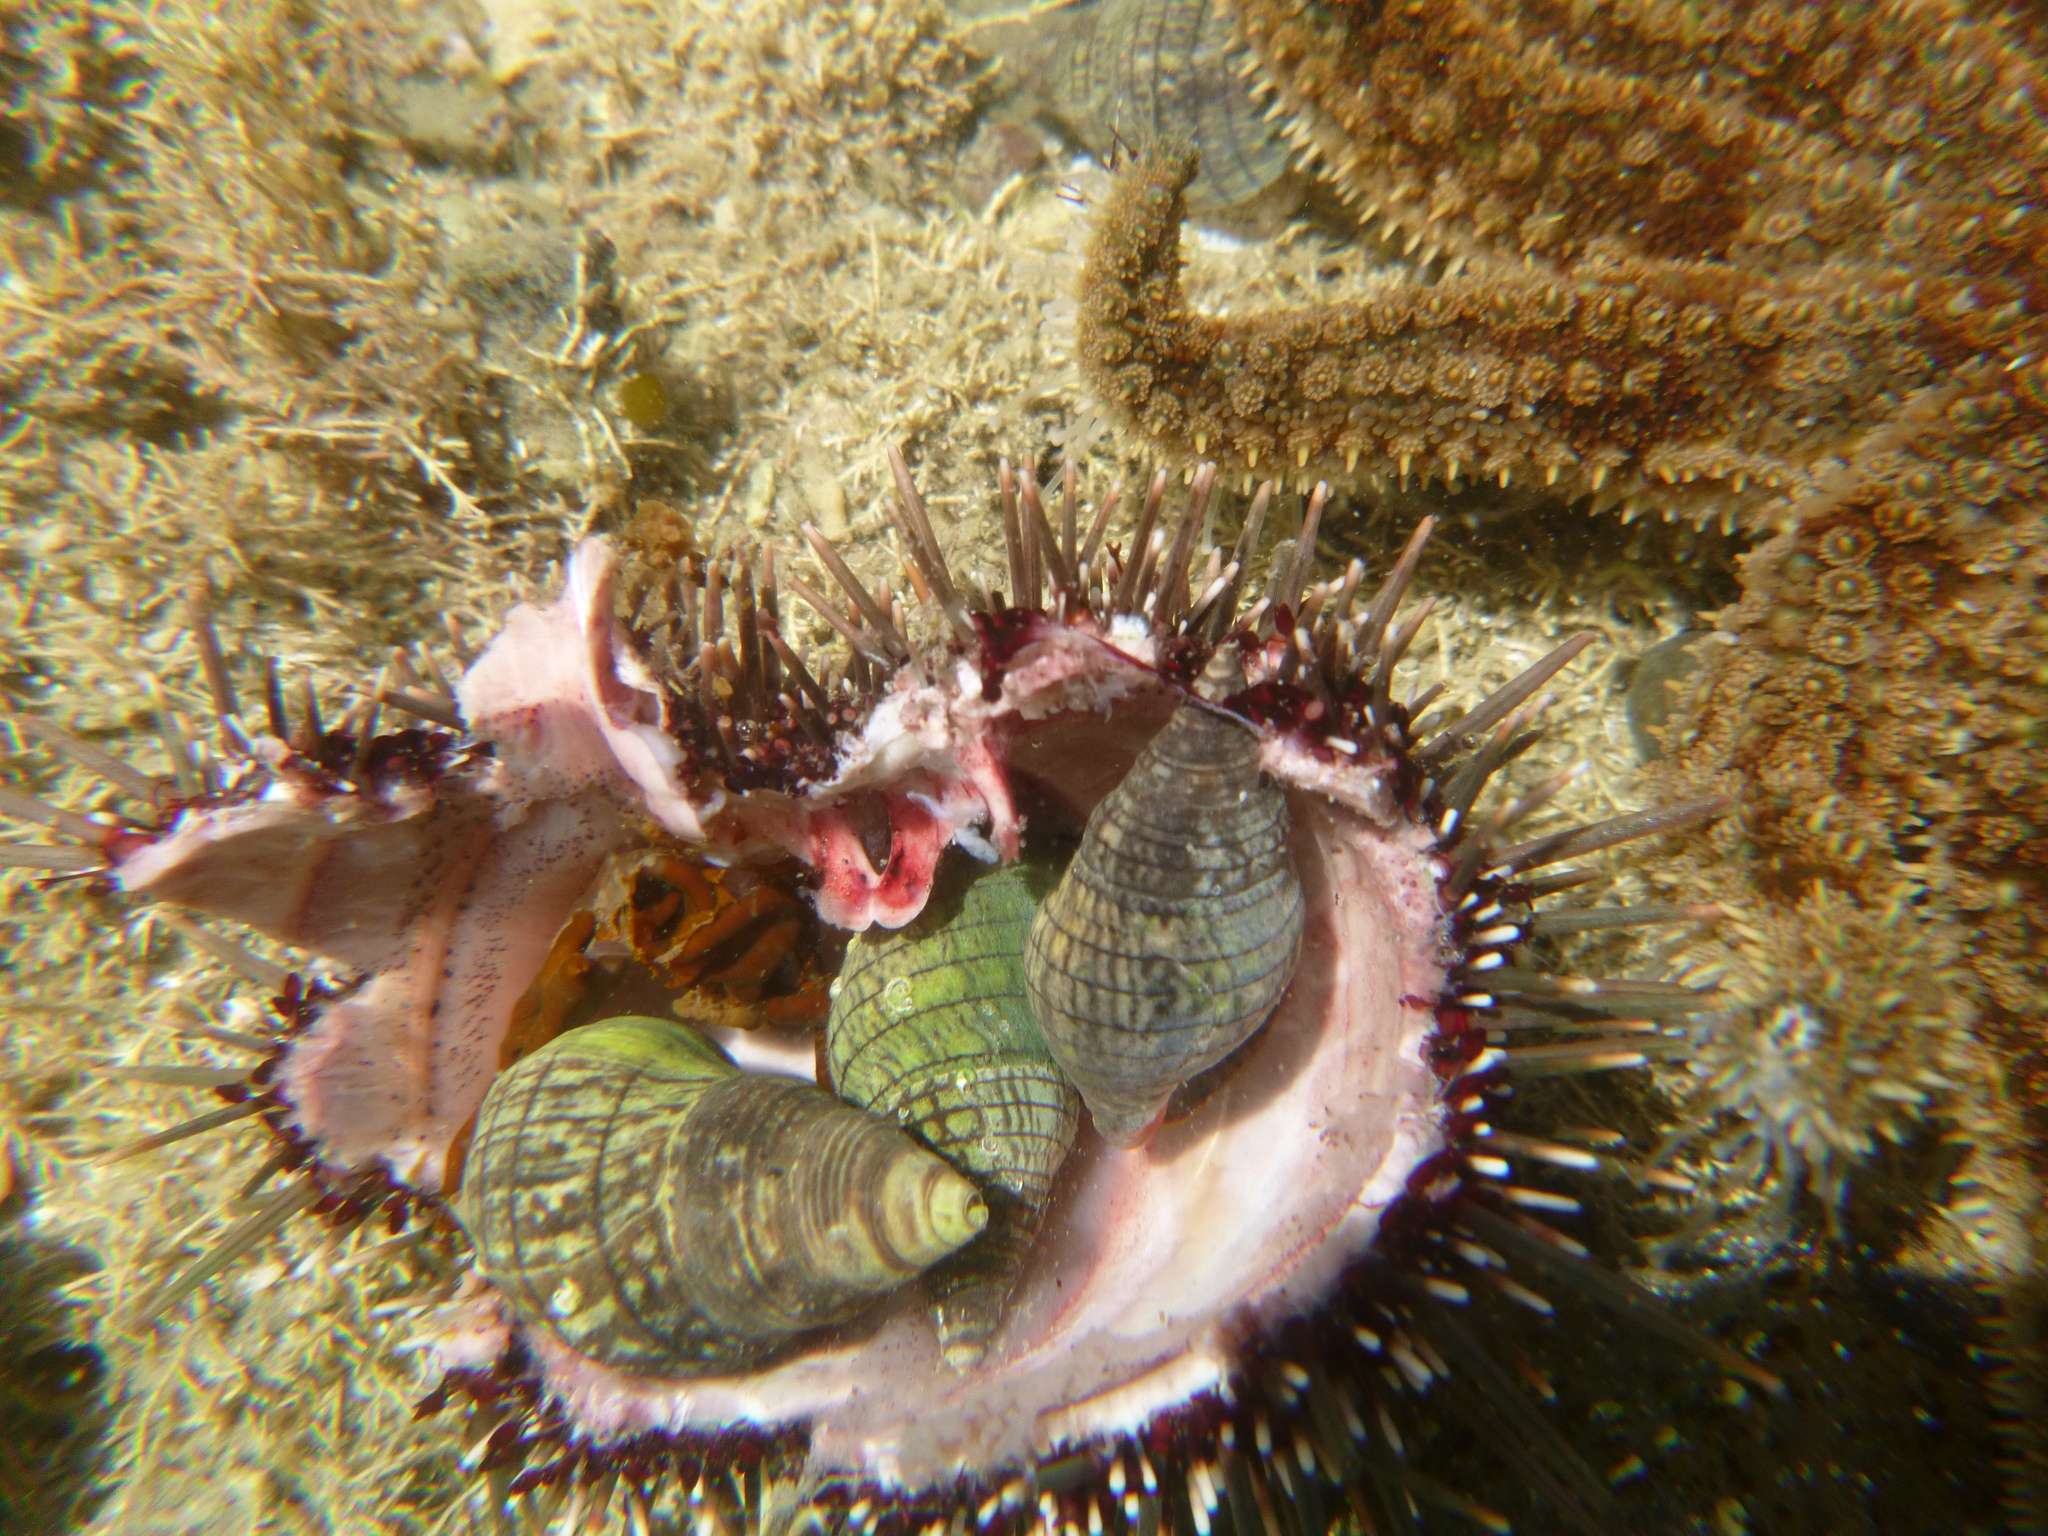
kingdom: Animalia
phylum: Echinodermata
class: Echinoidea
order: Camarodonta
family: Echinometridae
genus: Evechinus
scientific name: Evechinus chloroticus
